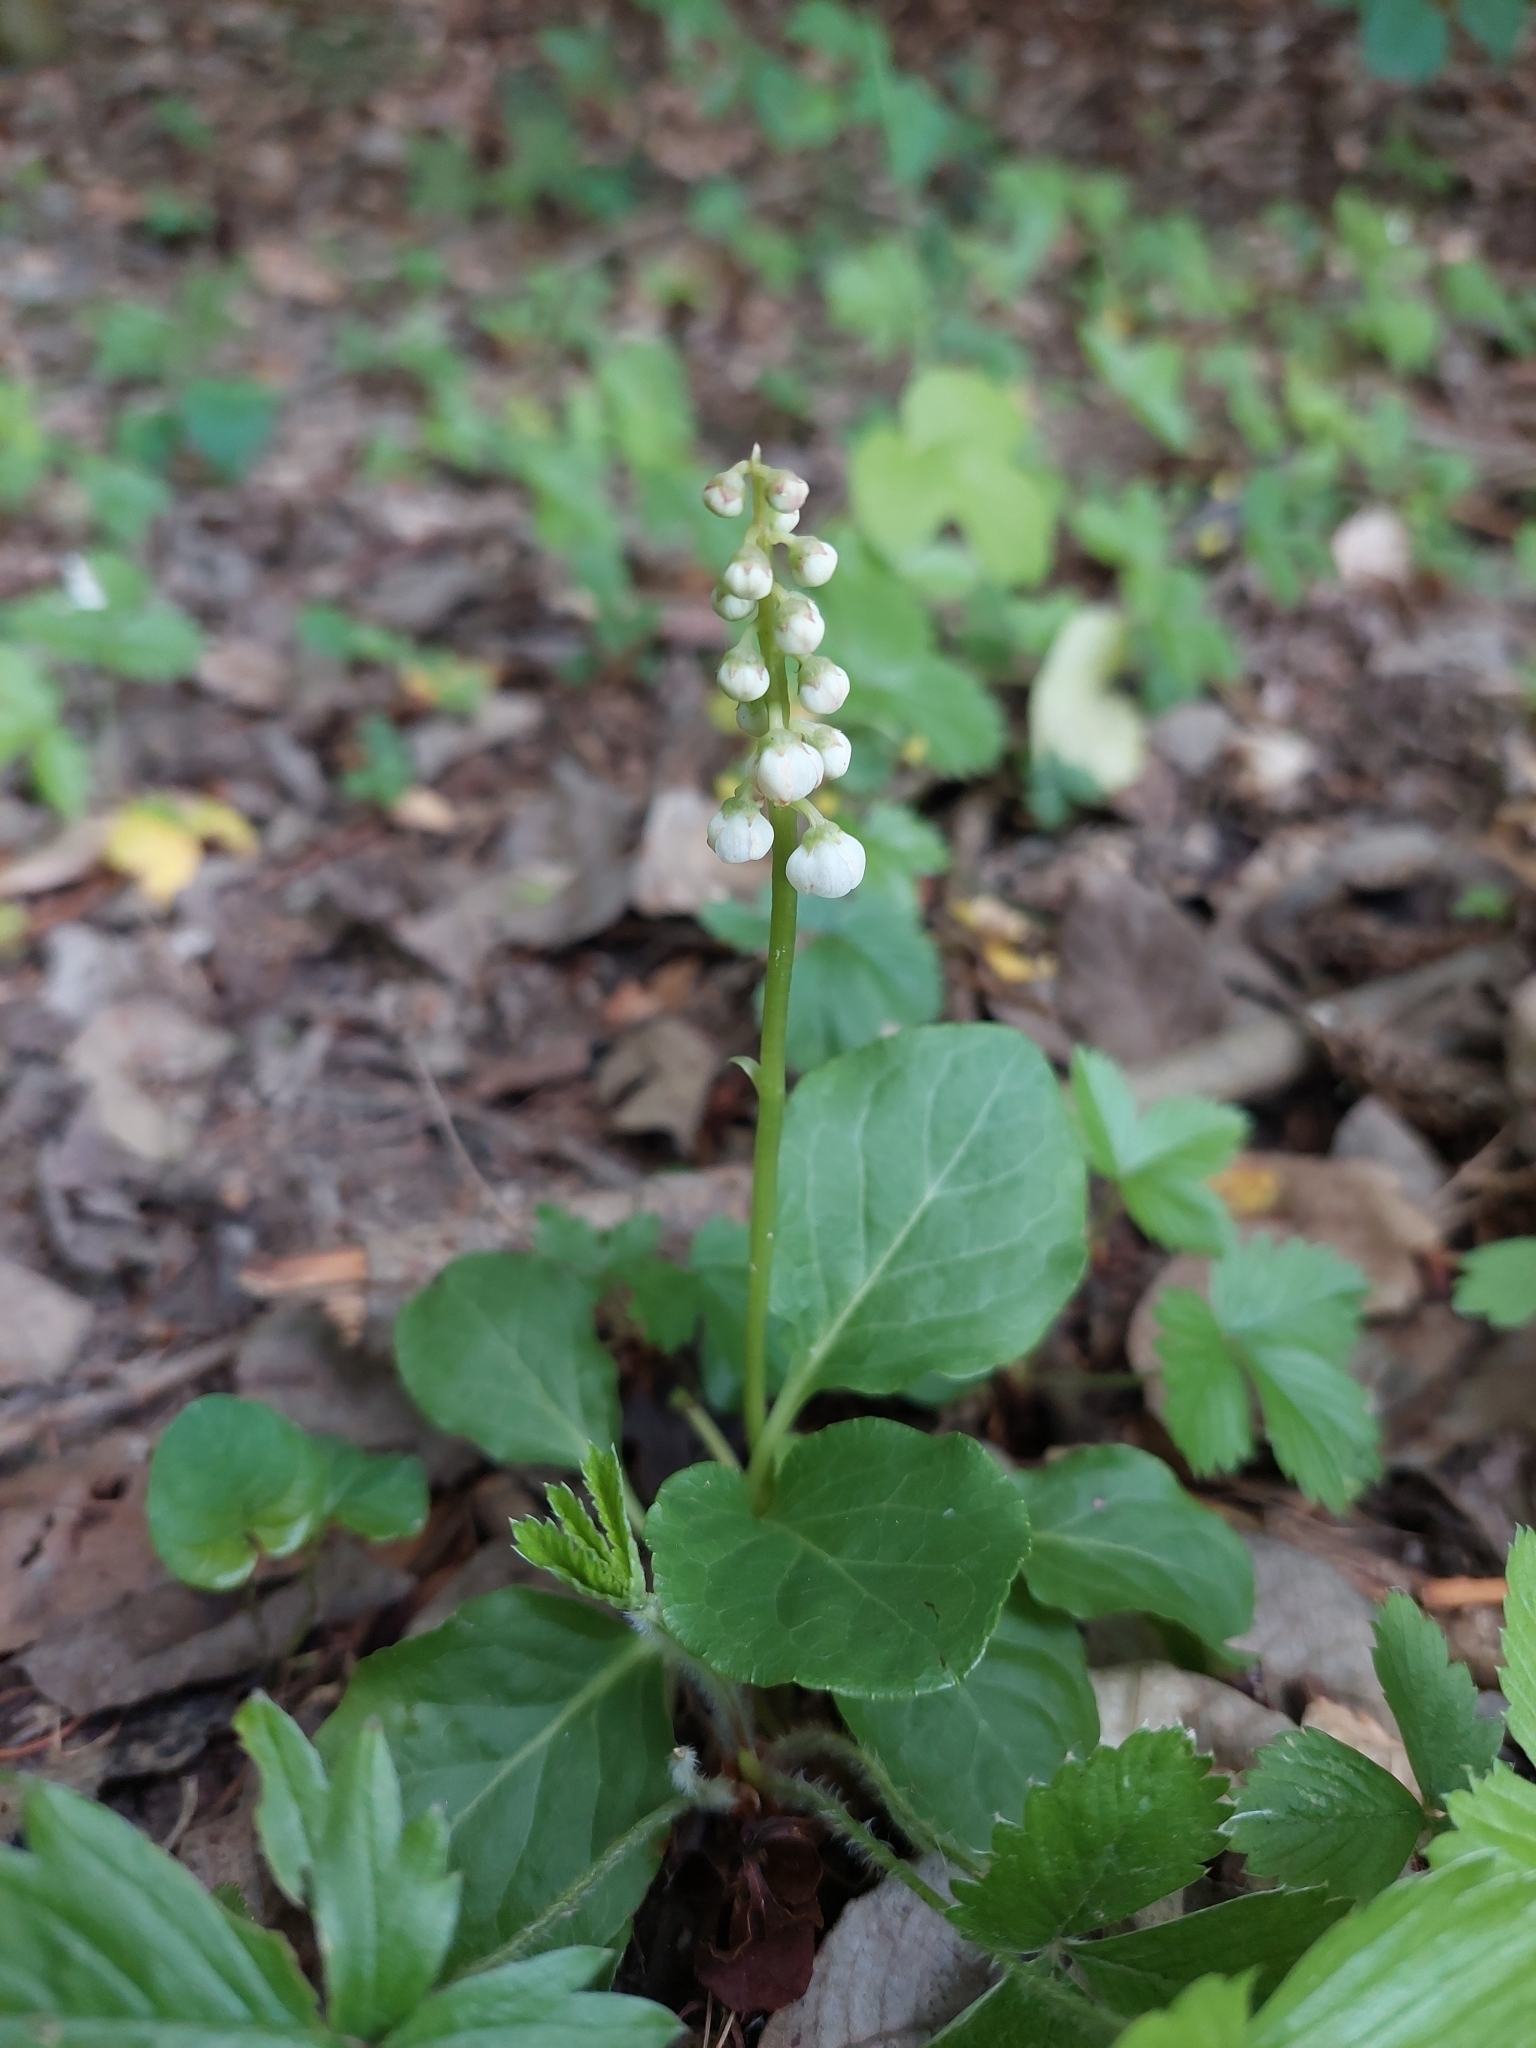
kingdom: Plantae
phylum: Tracheophyta
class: Magnoliopsida
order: Ericales
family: Ericaceae
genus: Pyrola
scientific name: Pyrola minor
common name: Common wintergreen
